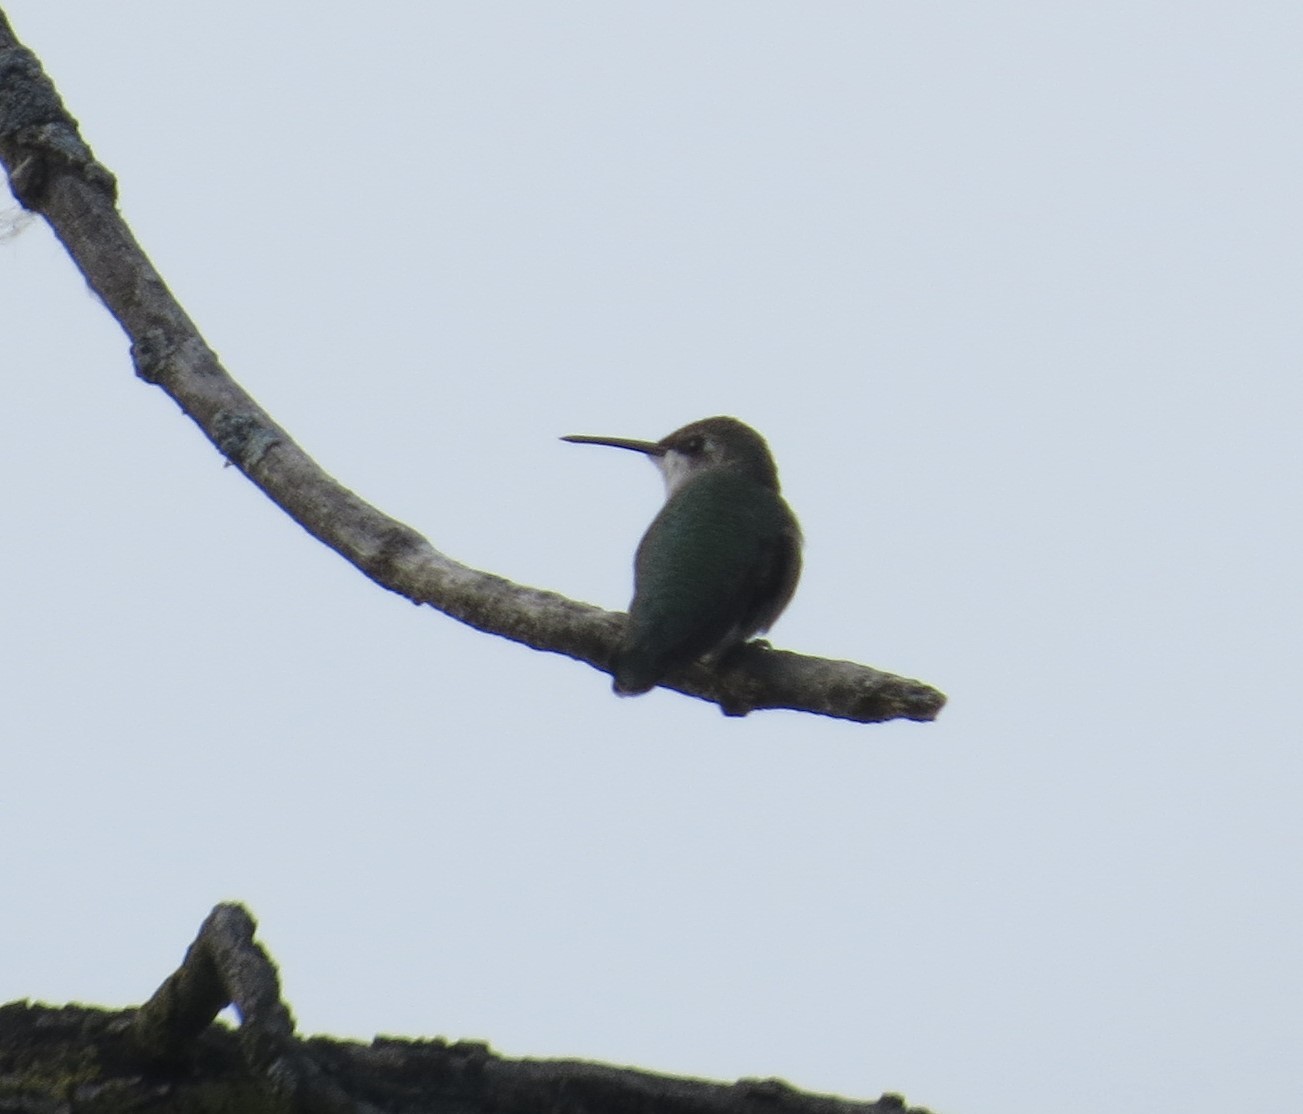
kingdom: Animalia
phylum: Chordata
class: Aves
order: Apodiformes
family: Trochilidae
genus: Archilochus
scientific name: Archilochus colubris
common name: Ruby-throated hummingbird
